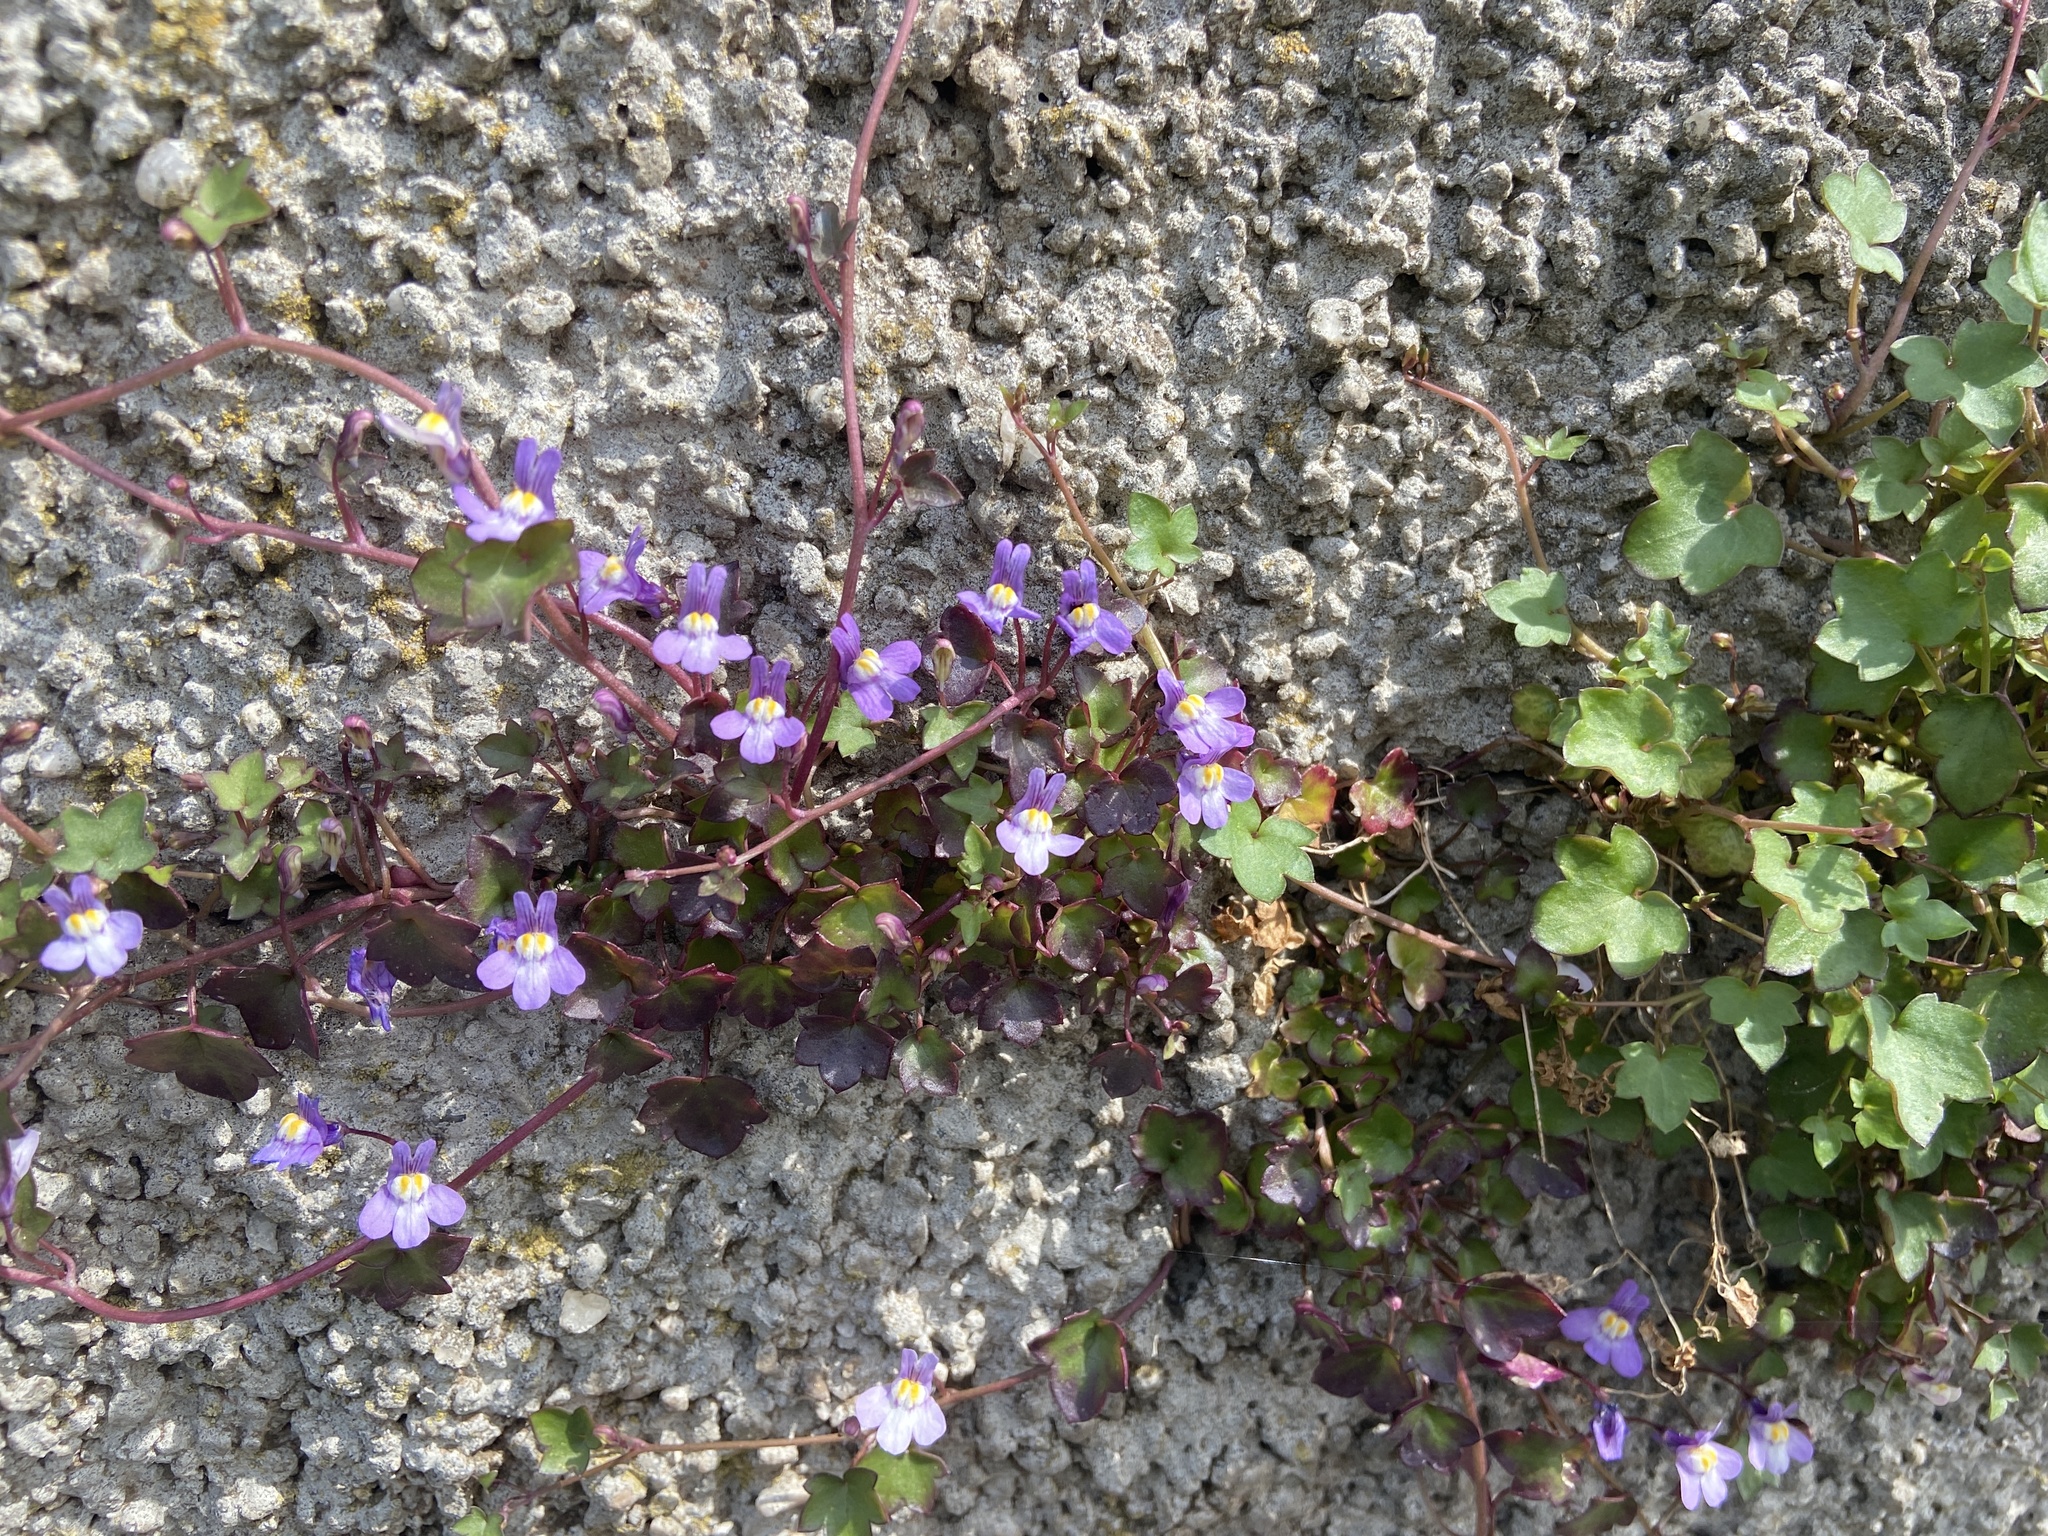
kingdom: Plantae
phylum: Tracheophyta
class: Magnoliopsida
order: Lamiales
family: Plantaginaceae
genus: Cymbalaria
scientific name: Cymbalaria muralis
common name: Ivy-leaved toadflax
